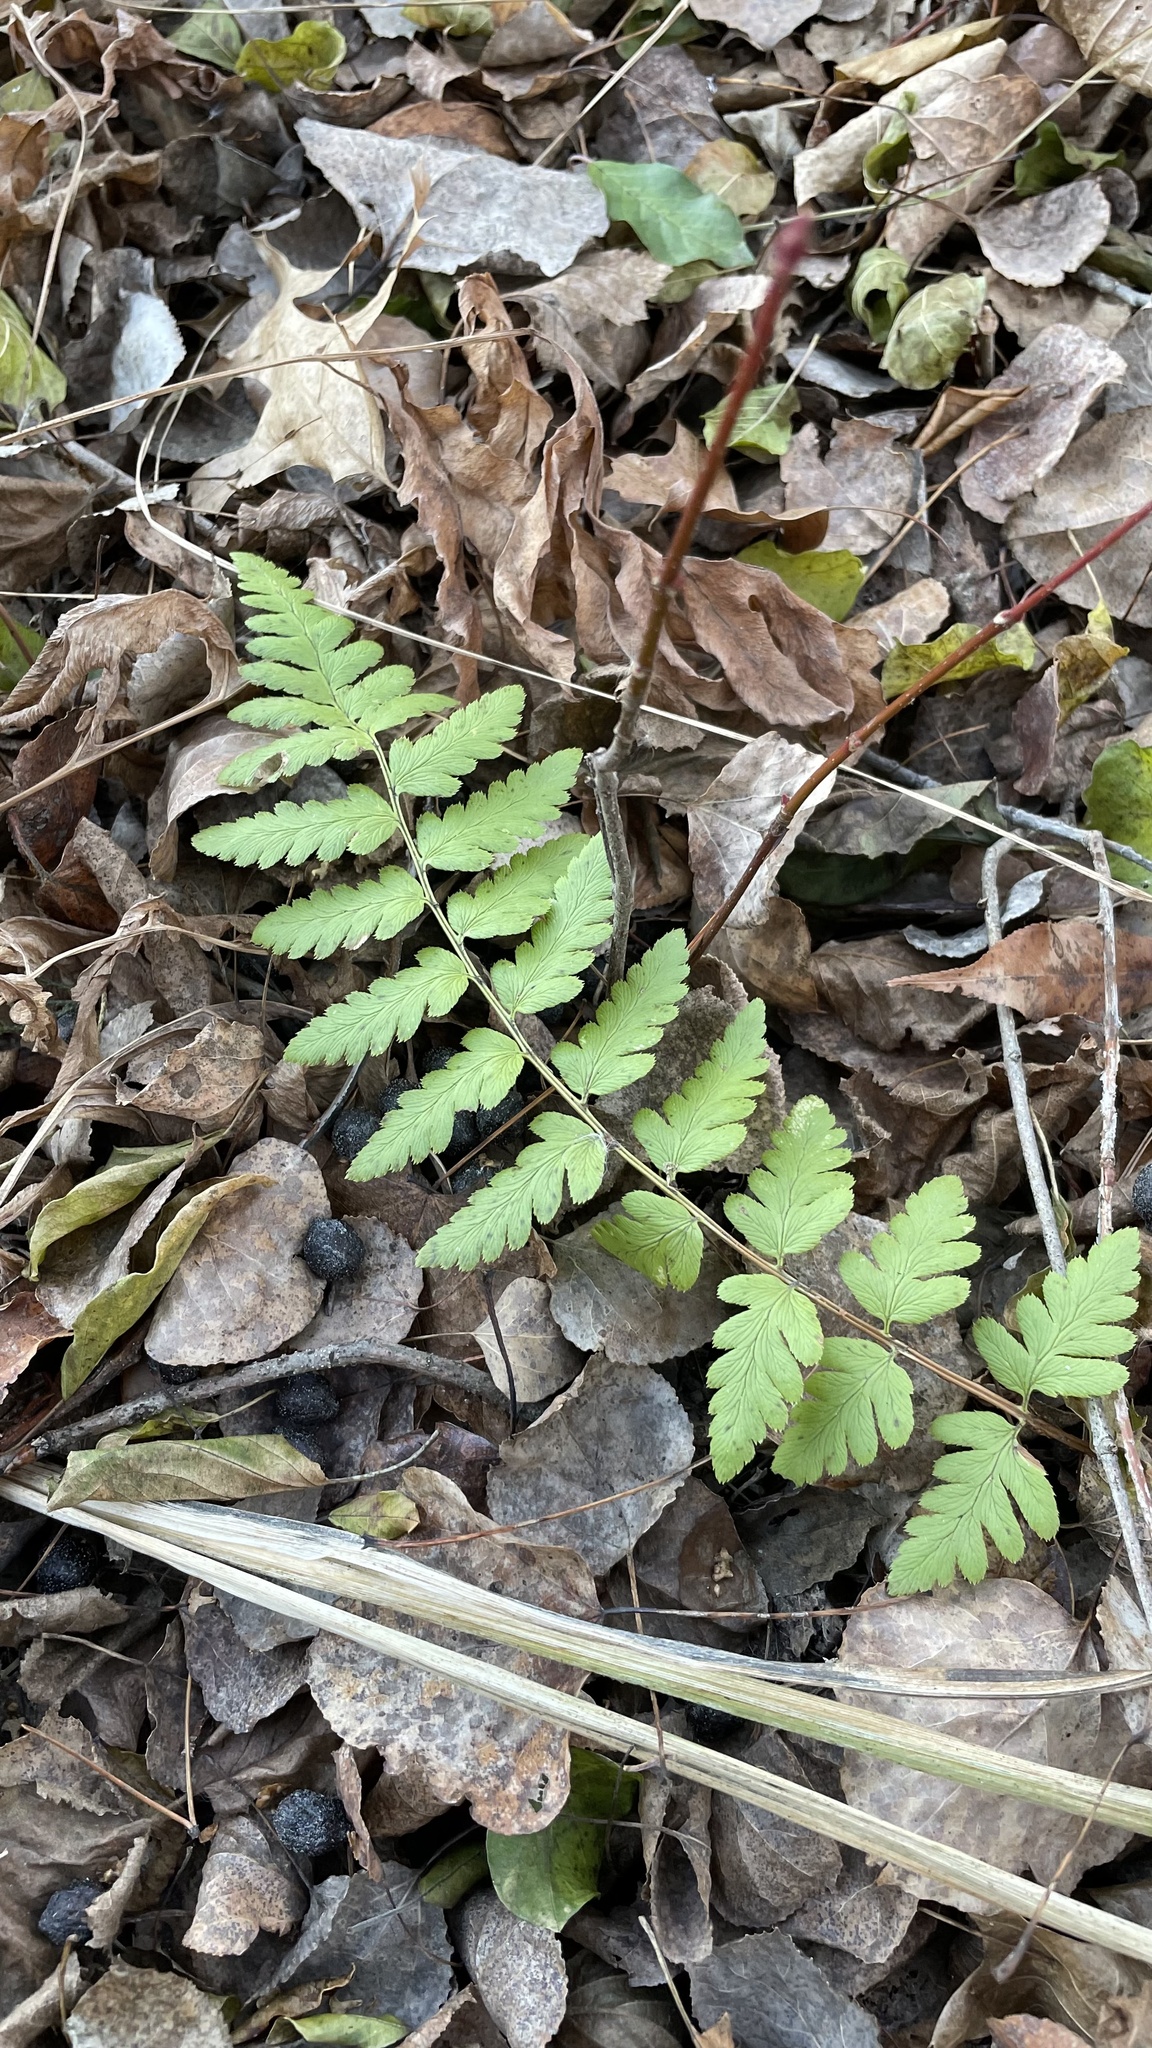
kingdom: Plantae
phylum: Tracheophyta
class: Polypodiopsida
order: Polypodiales
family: Dryopteridaceae
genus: Dryopteris
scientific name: Dryopteris cristata
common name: Crested wood fern
